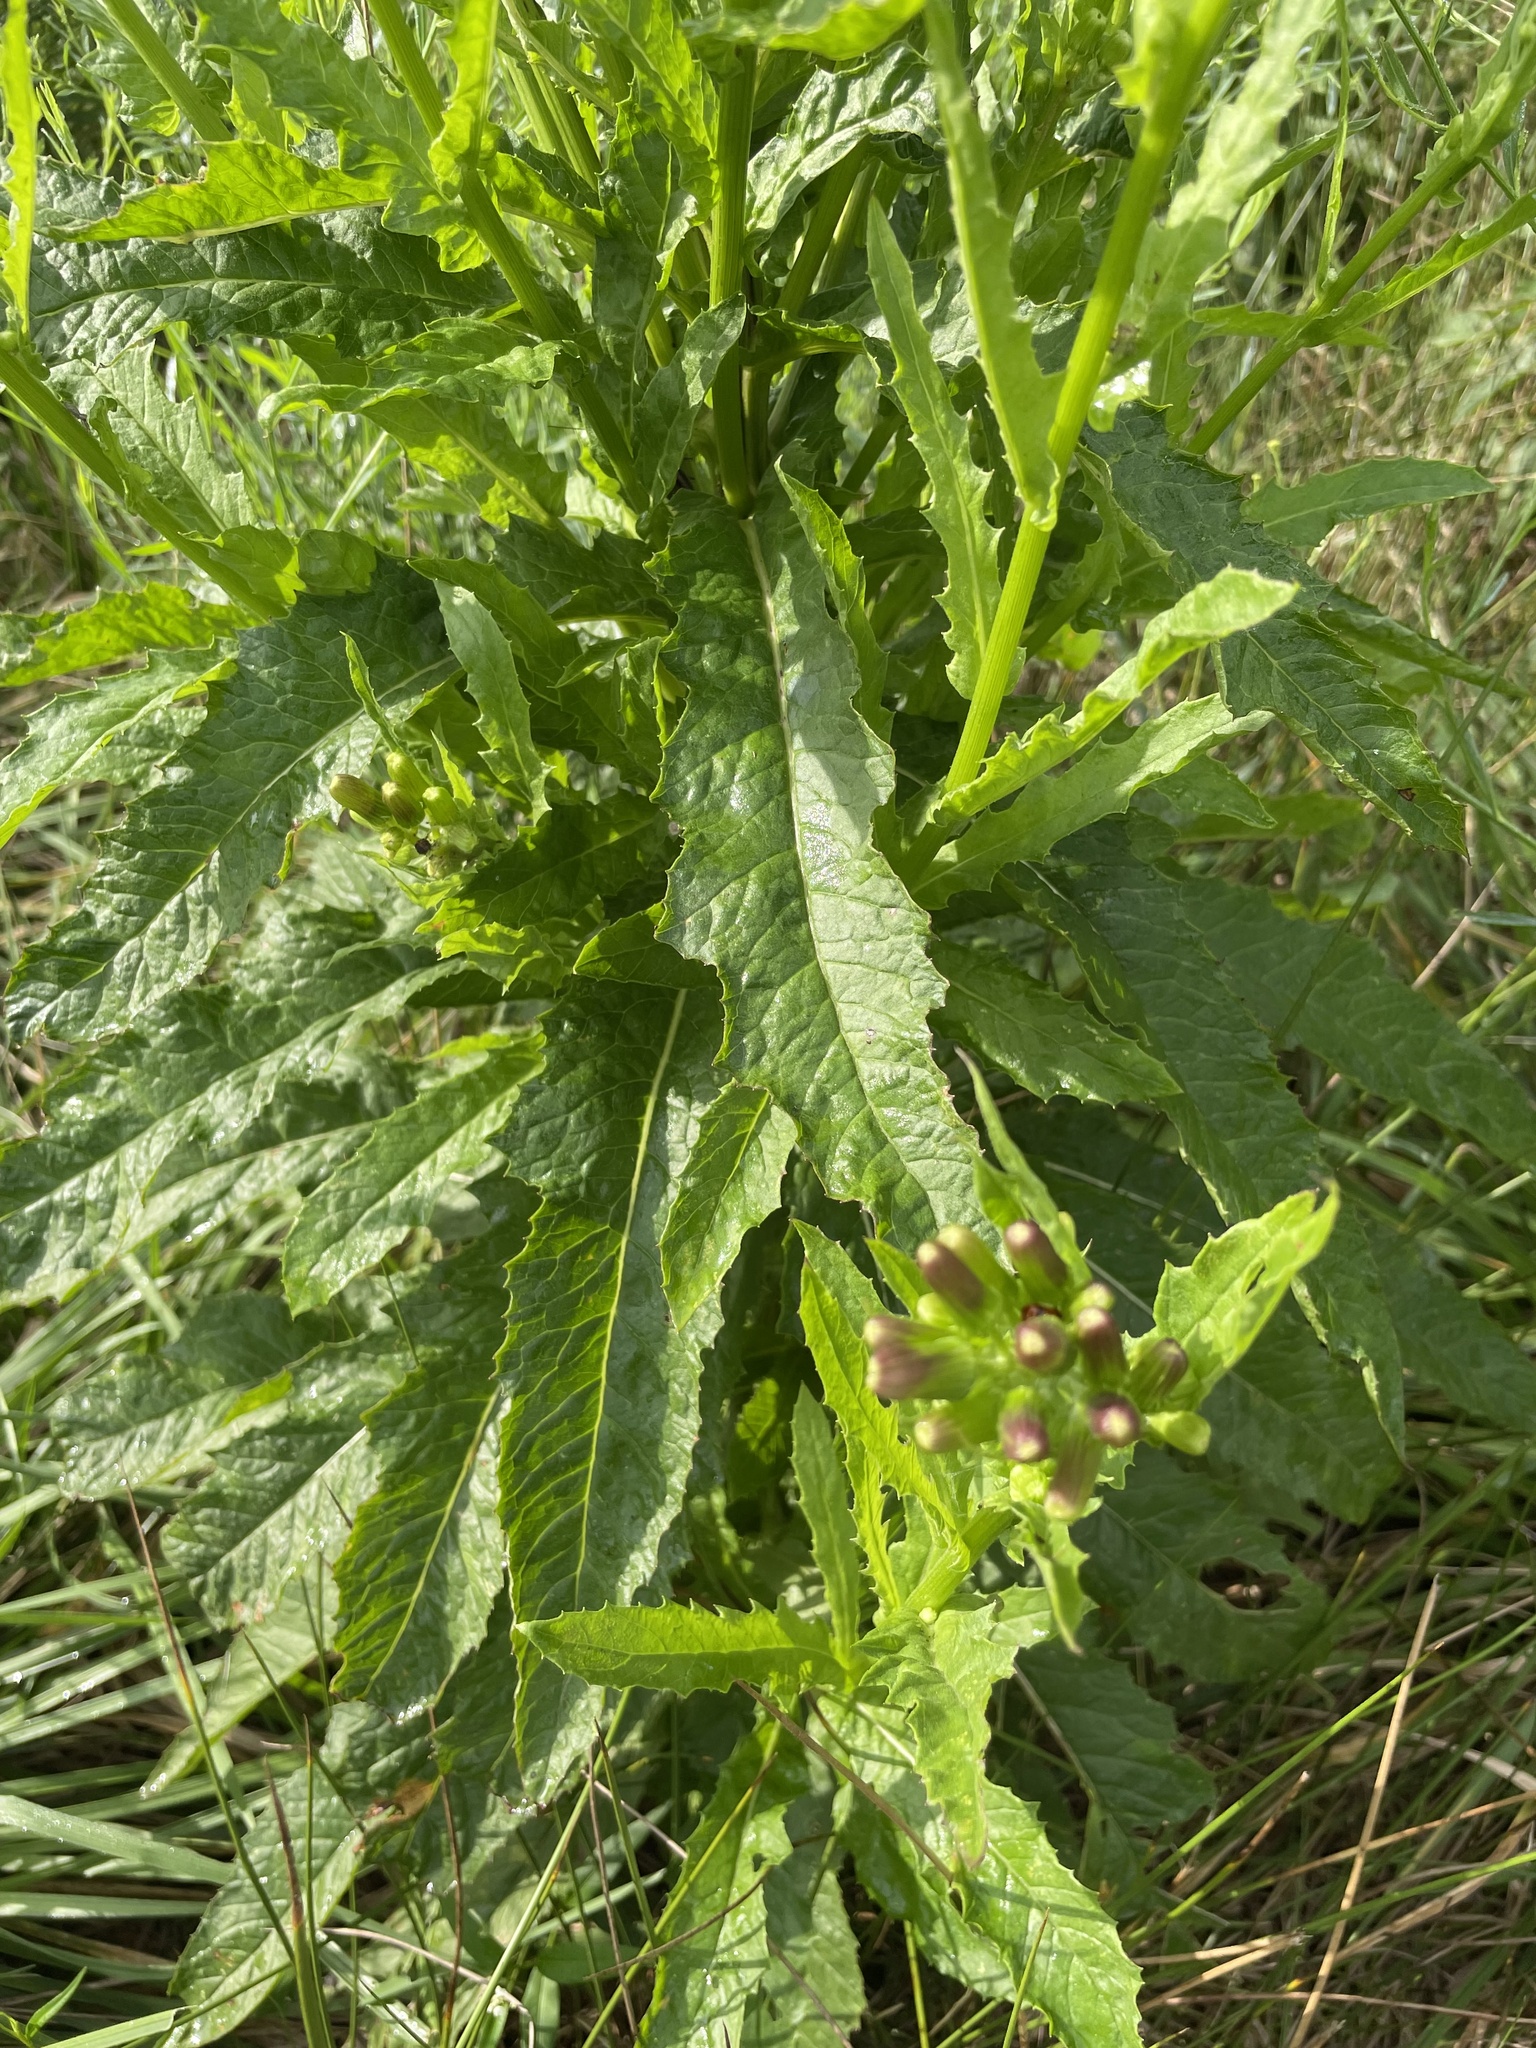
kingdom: Plantae
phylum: Tracheophyta
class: Magnoliopsida
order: Asterales
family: Asteraceae
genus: Erechtites
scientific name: Erechtites hieraciifolius
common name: American burnweed
